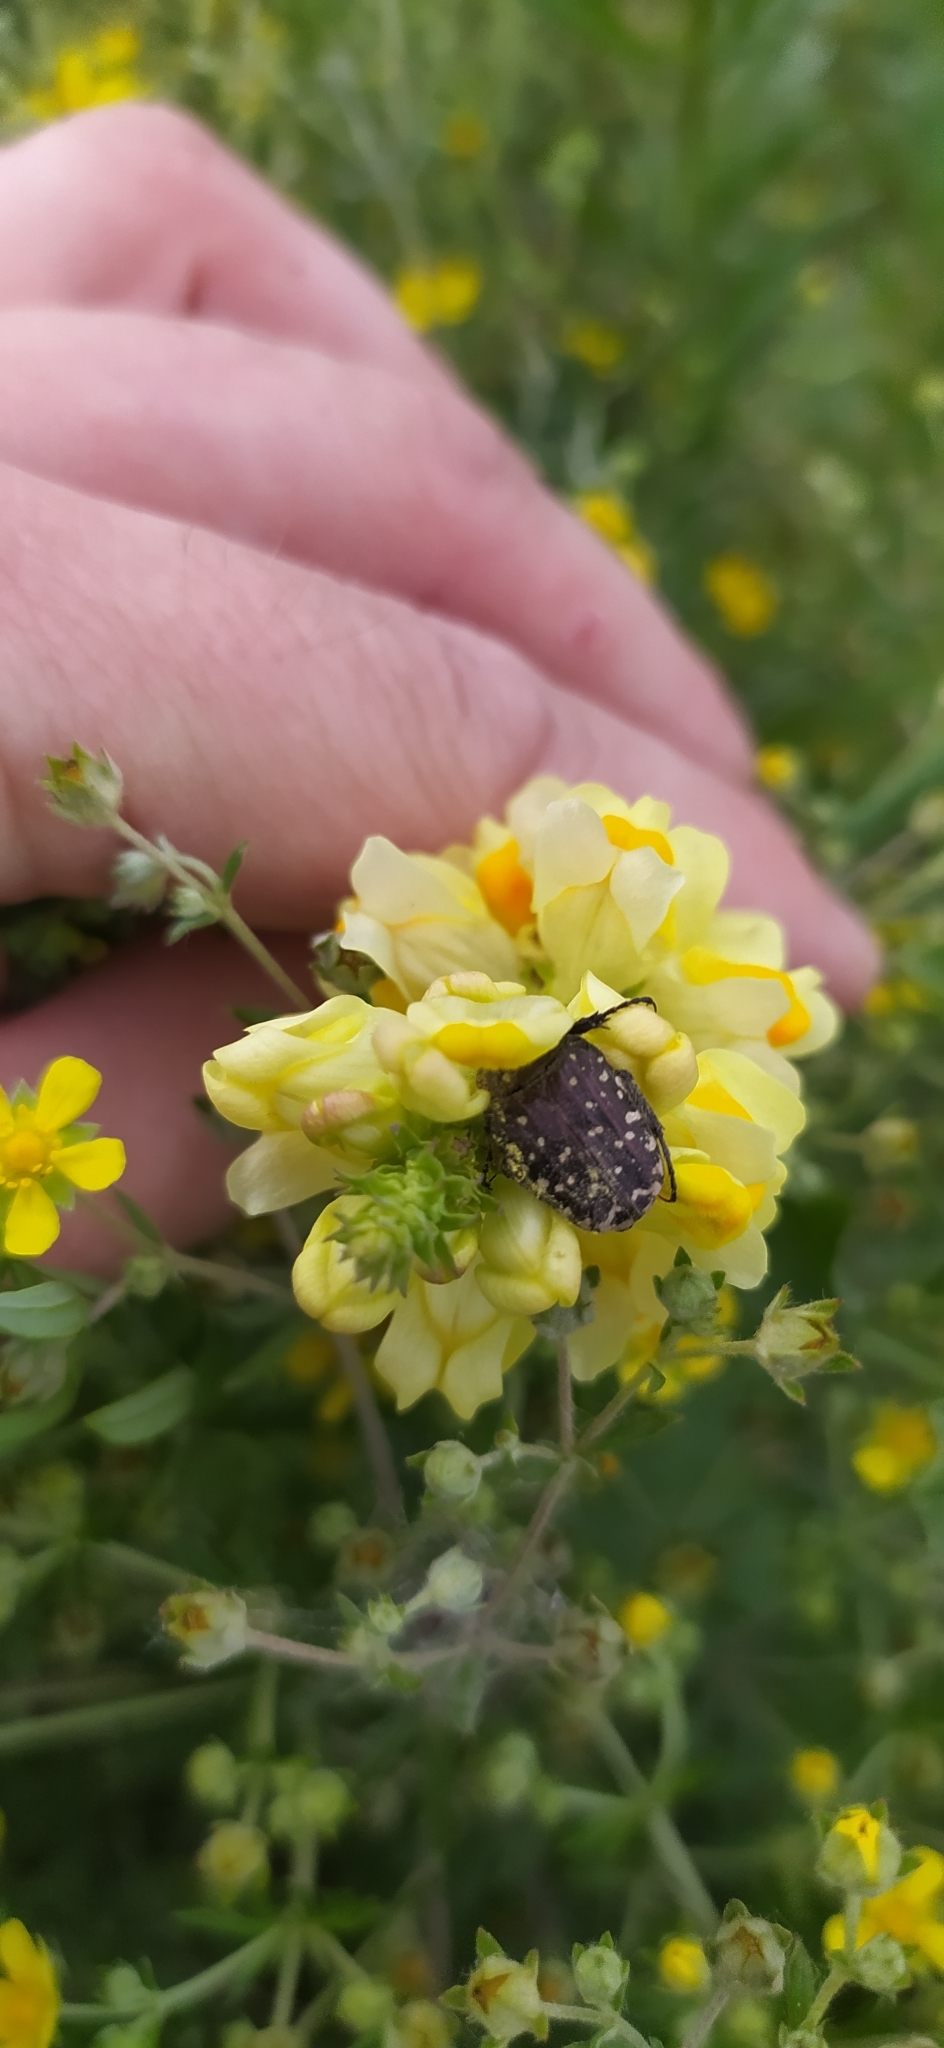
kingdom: Animalia
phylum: Arthropoda
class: Insecta
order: Coleoptera
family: Scarabaeidae
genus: Oxythyrea
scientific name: Oxythyrea funesta
